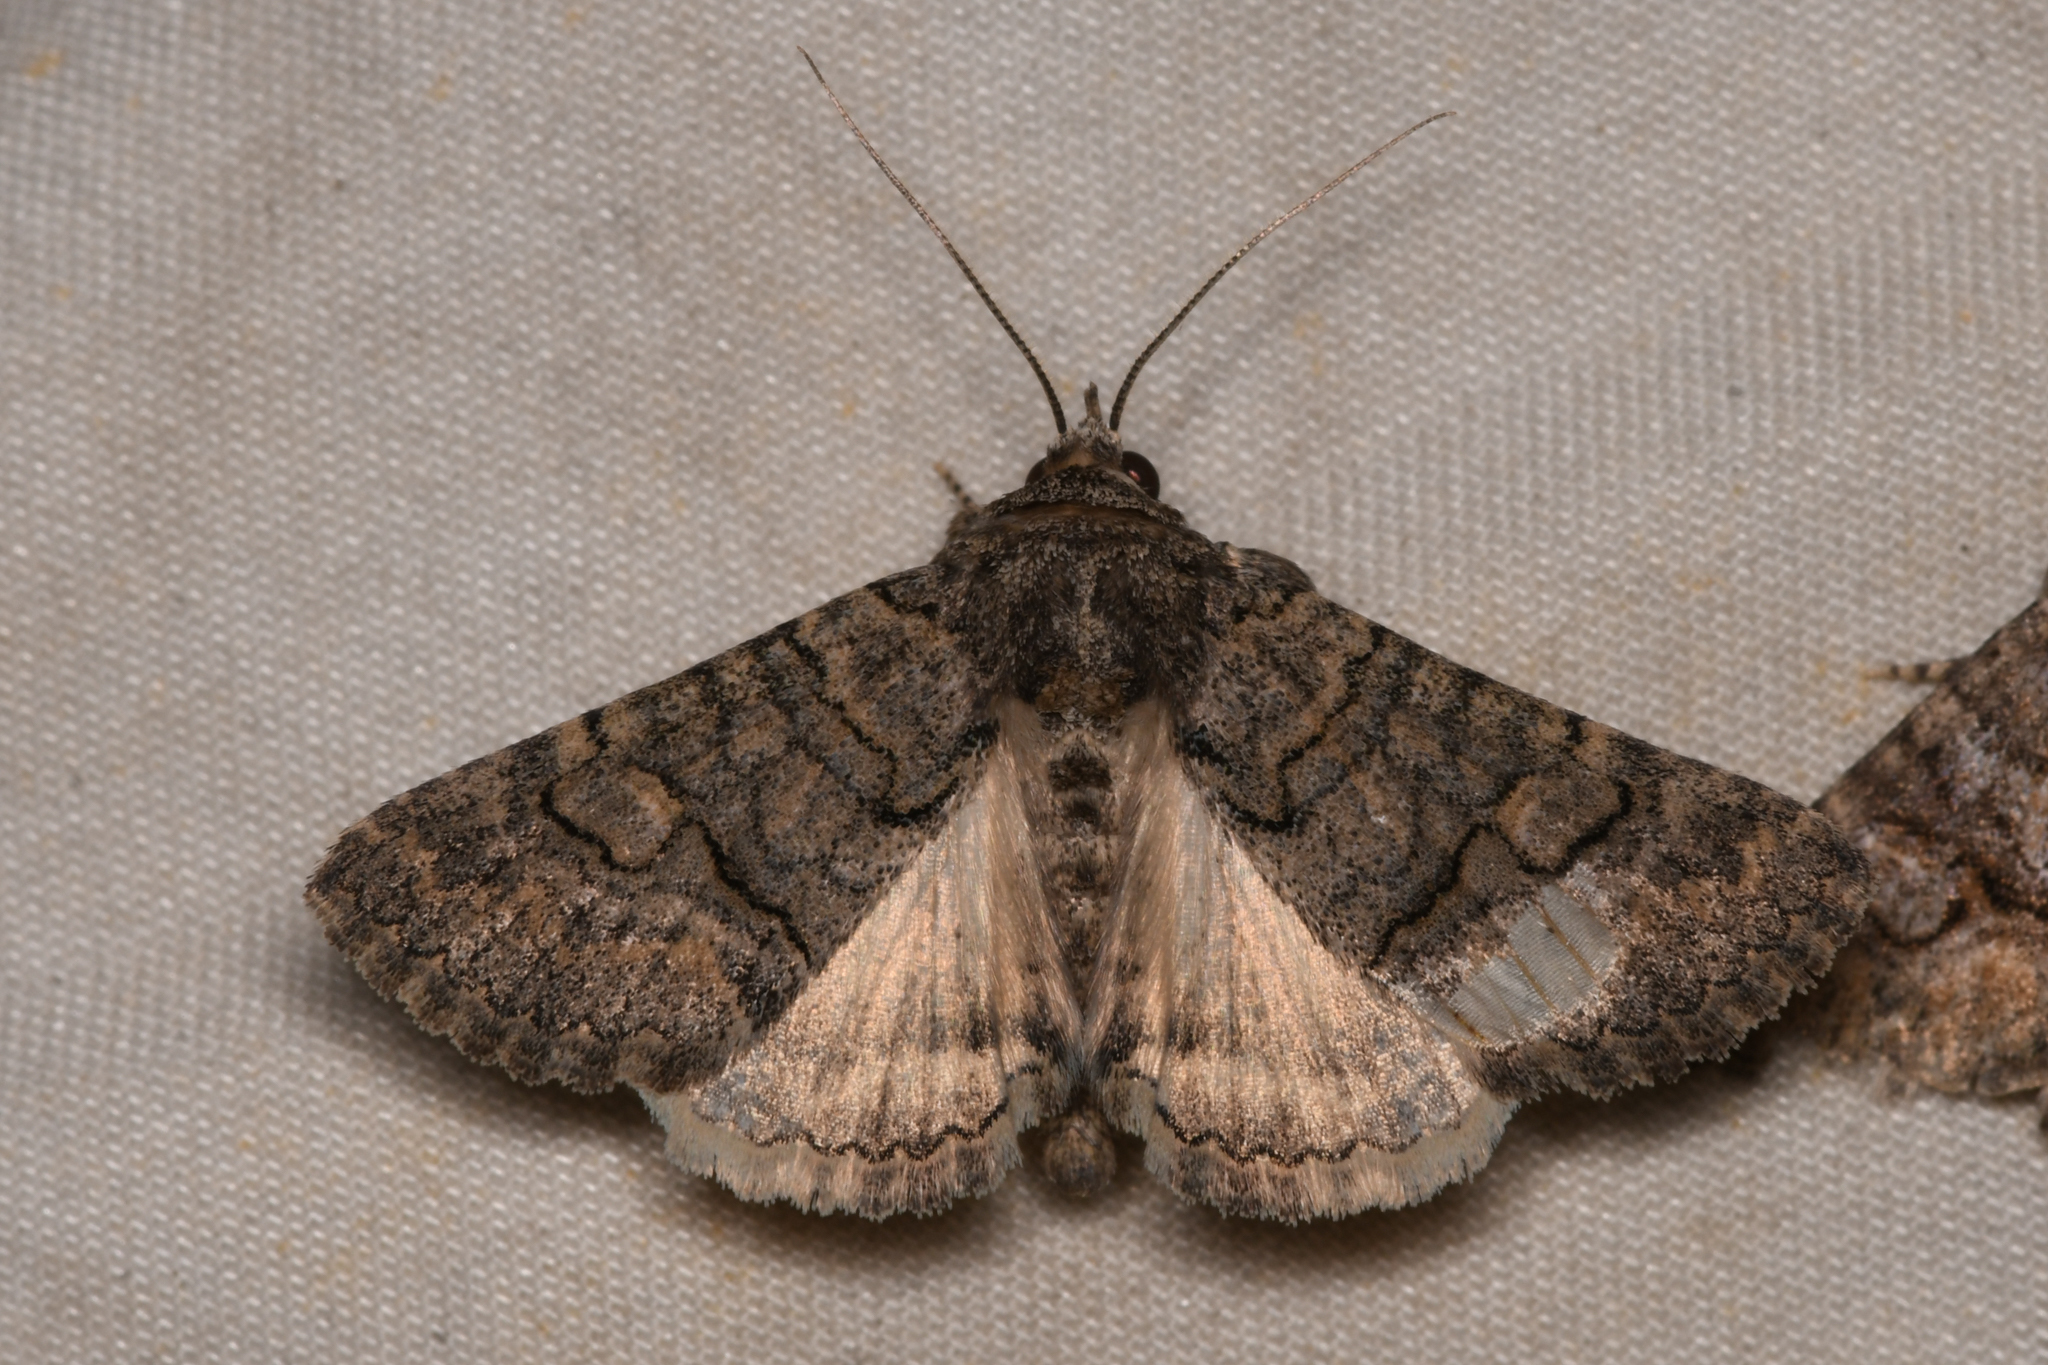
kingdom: Animalia
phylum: Arthropoda
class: Insecta
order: Lepidoptera
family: Erebidae
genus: Elousa
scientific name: Elousa mima
